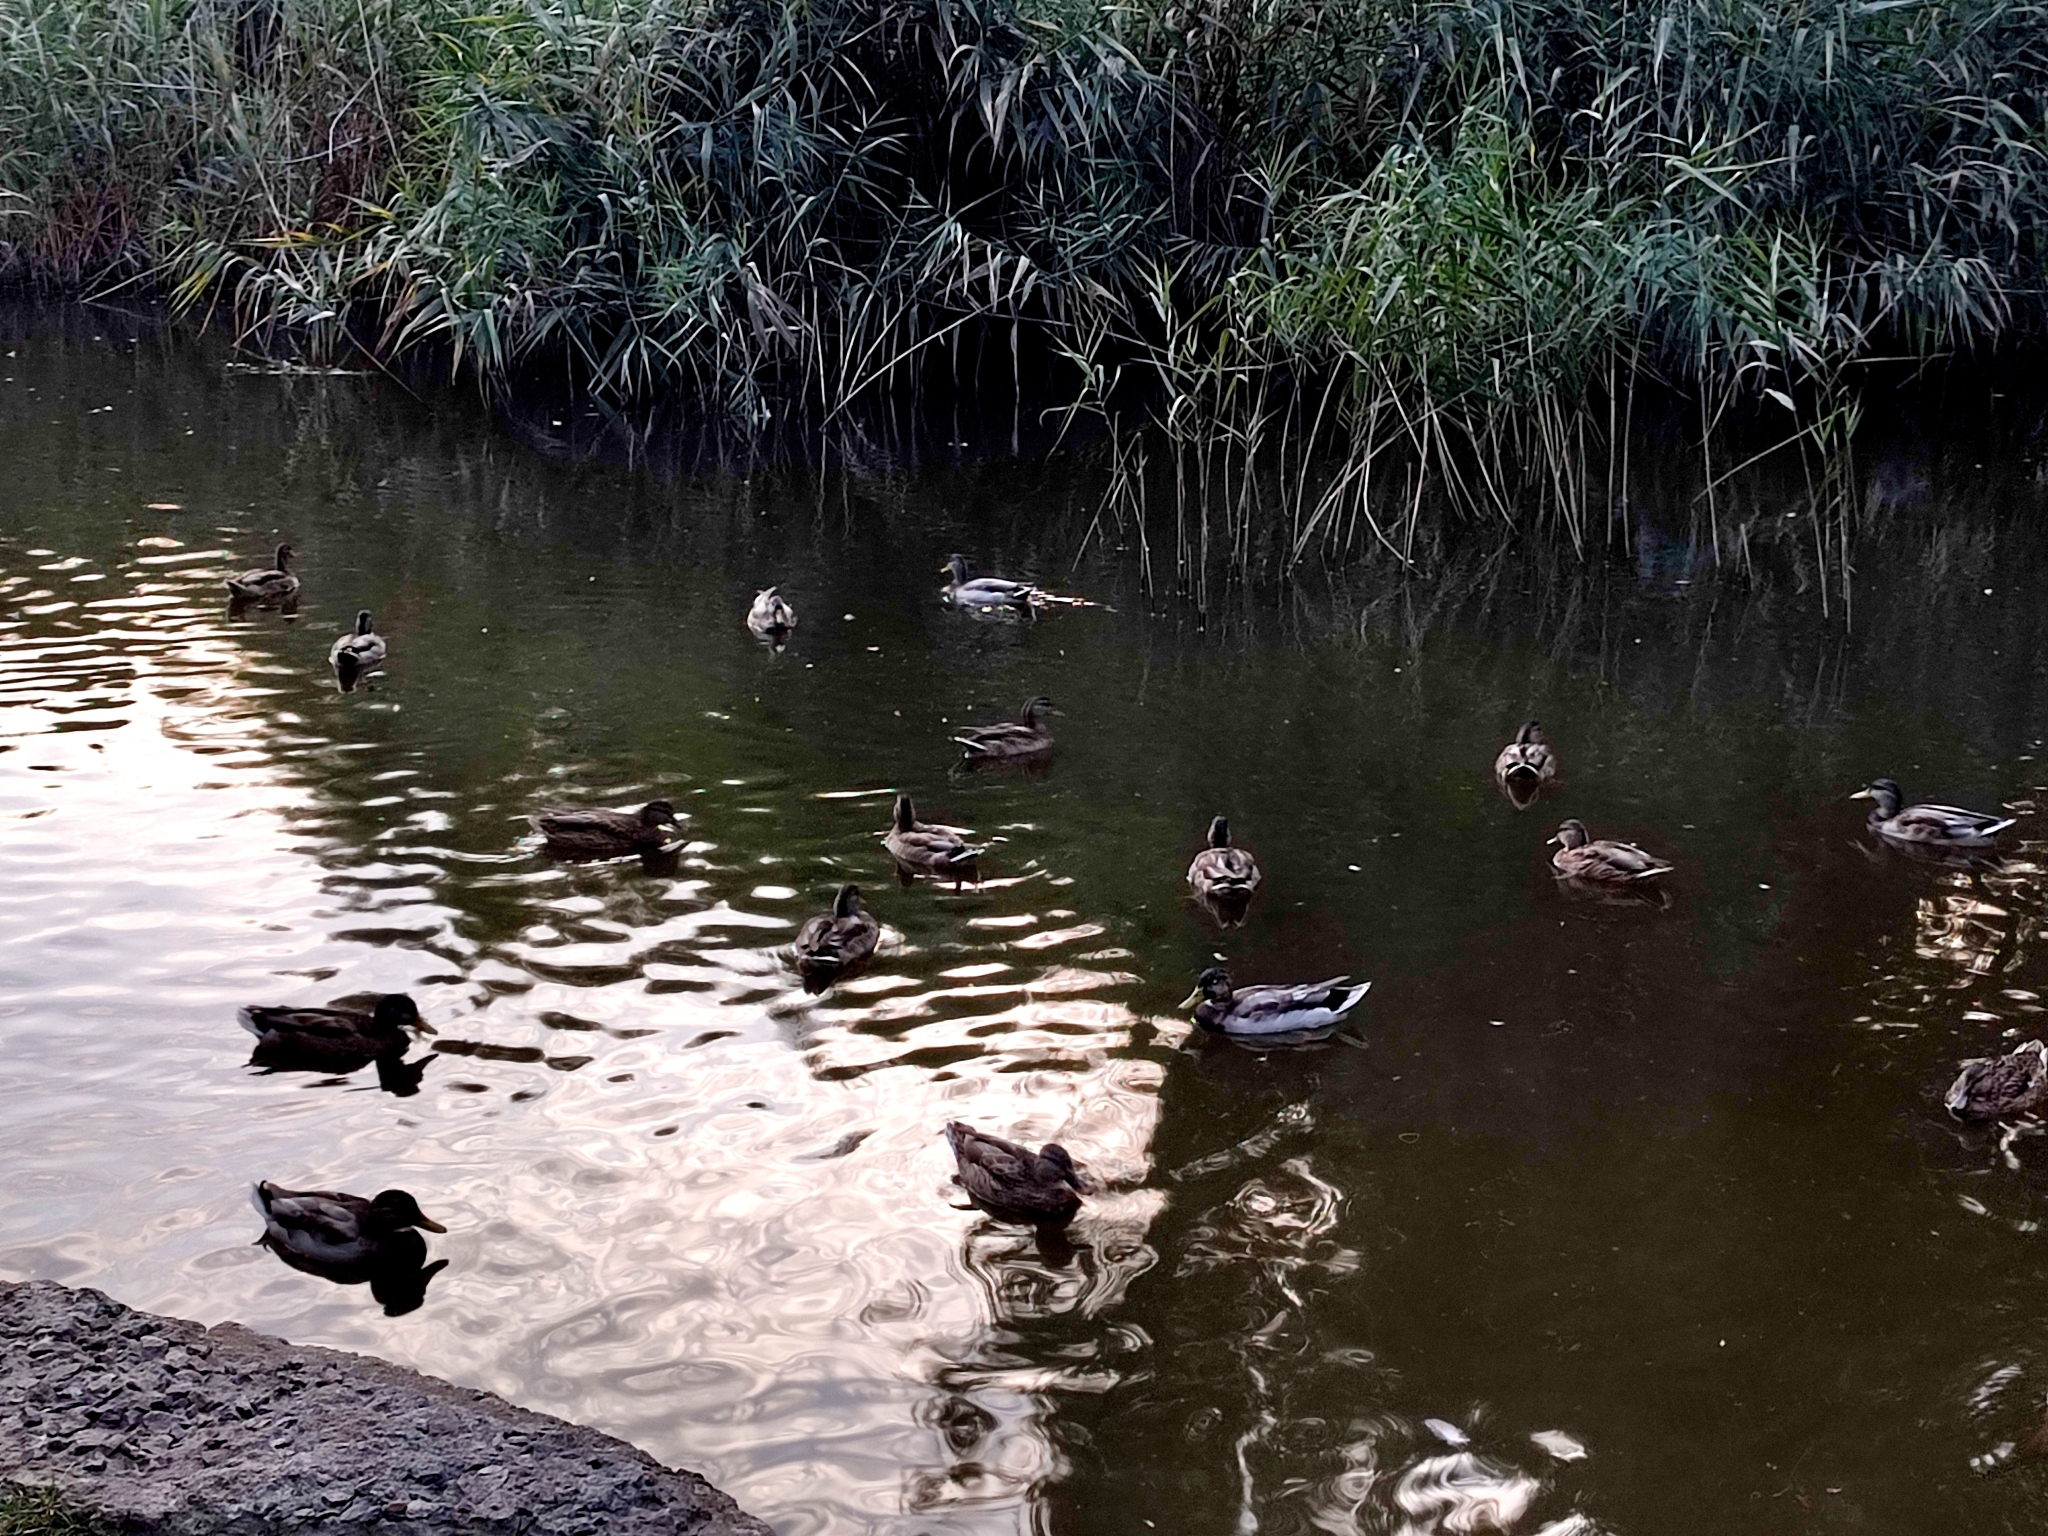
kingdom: Animalia
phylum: Chordata
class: Aves
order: Anseriformes
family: Anatidae
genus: Anas
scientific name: Anas platyrhynchos
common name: Mallard
